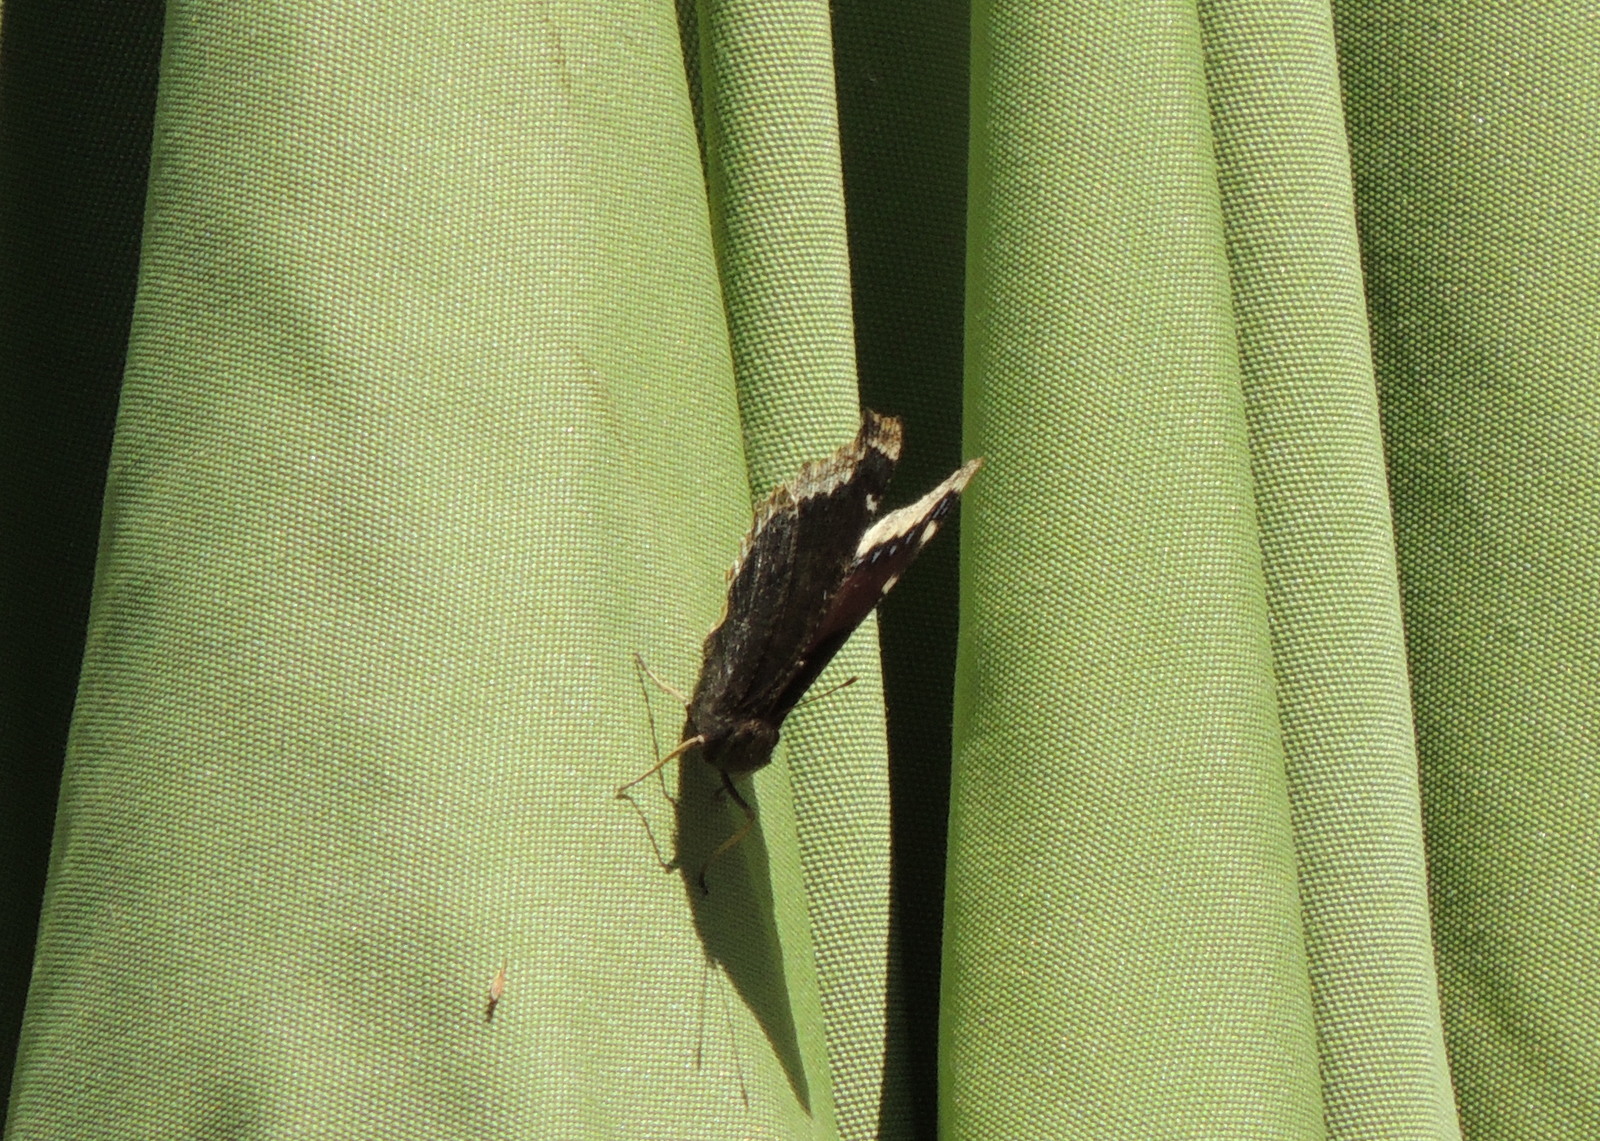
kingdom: Animalia
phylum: Arthropoda
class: Insecta
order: Lepidoptera
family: Nymphalidae
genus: Nymphalis
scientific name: Nymphalis antiopa
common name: Camberwell beauty
